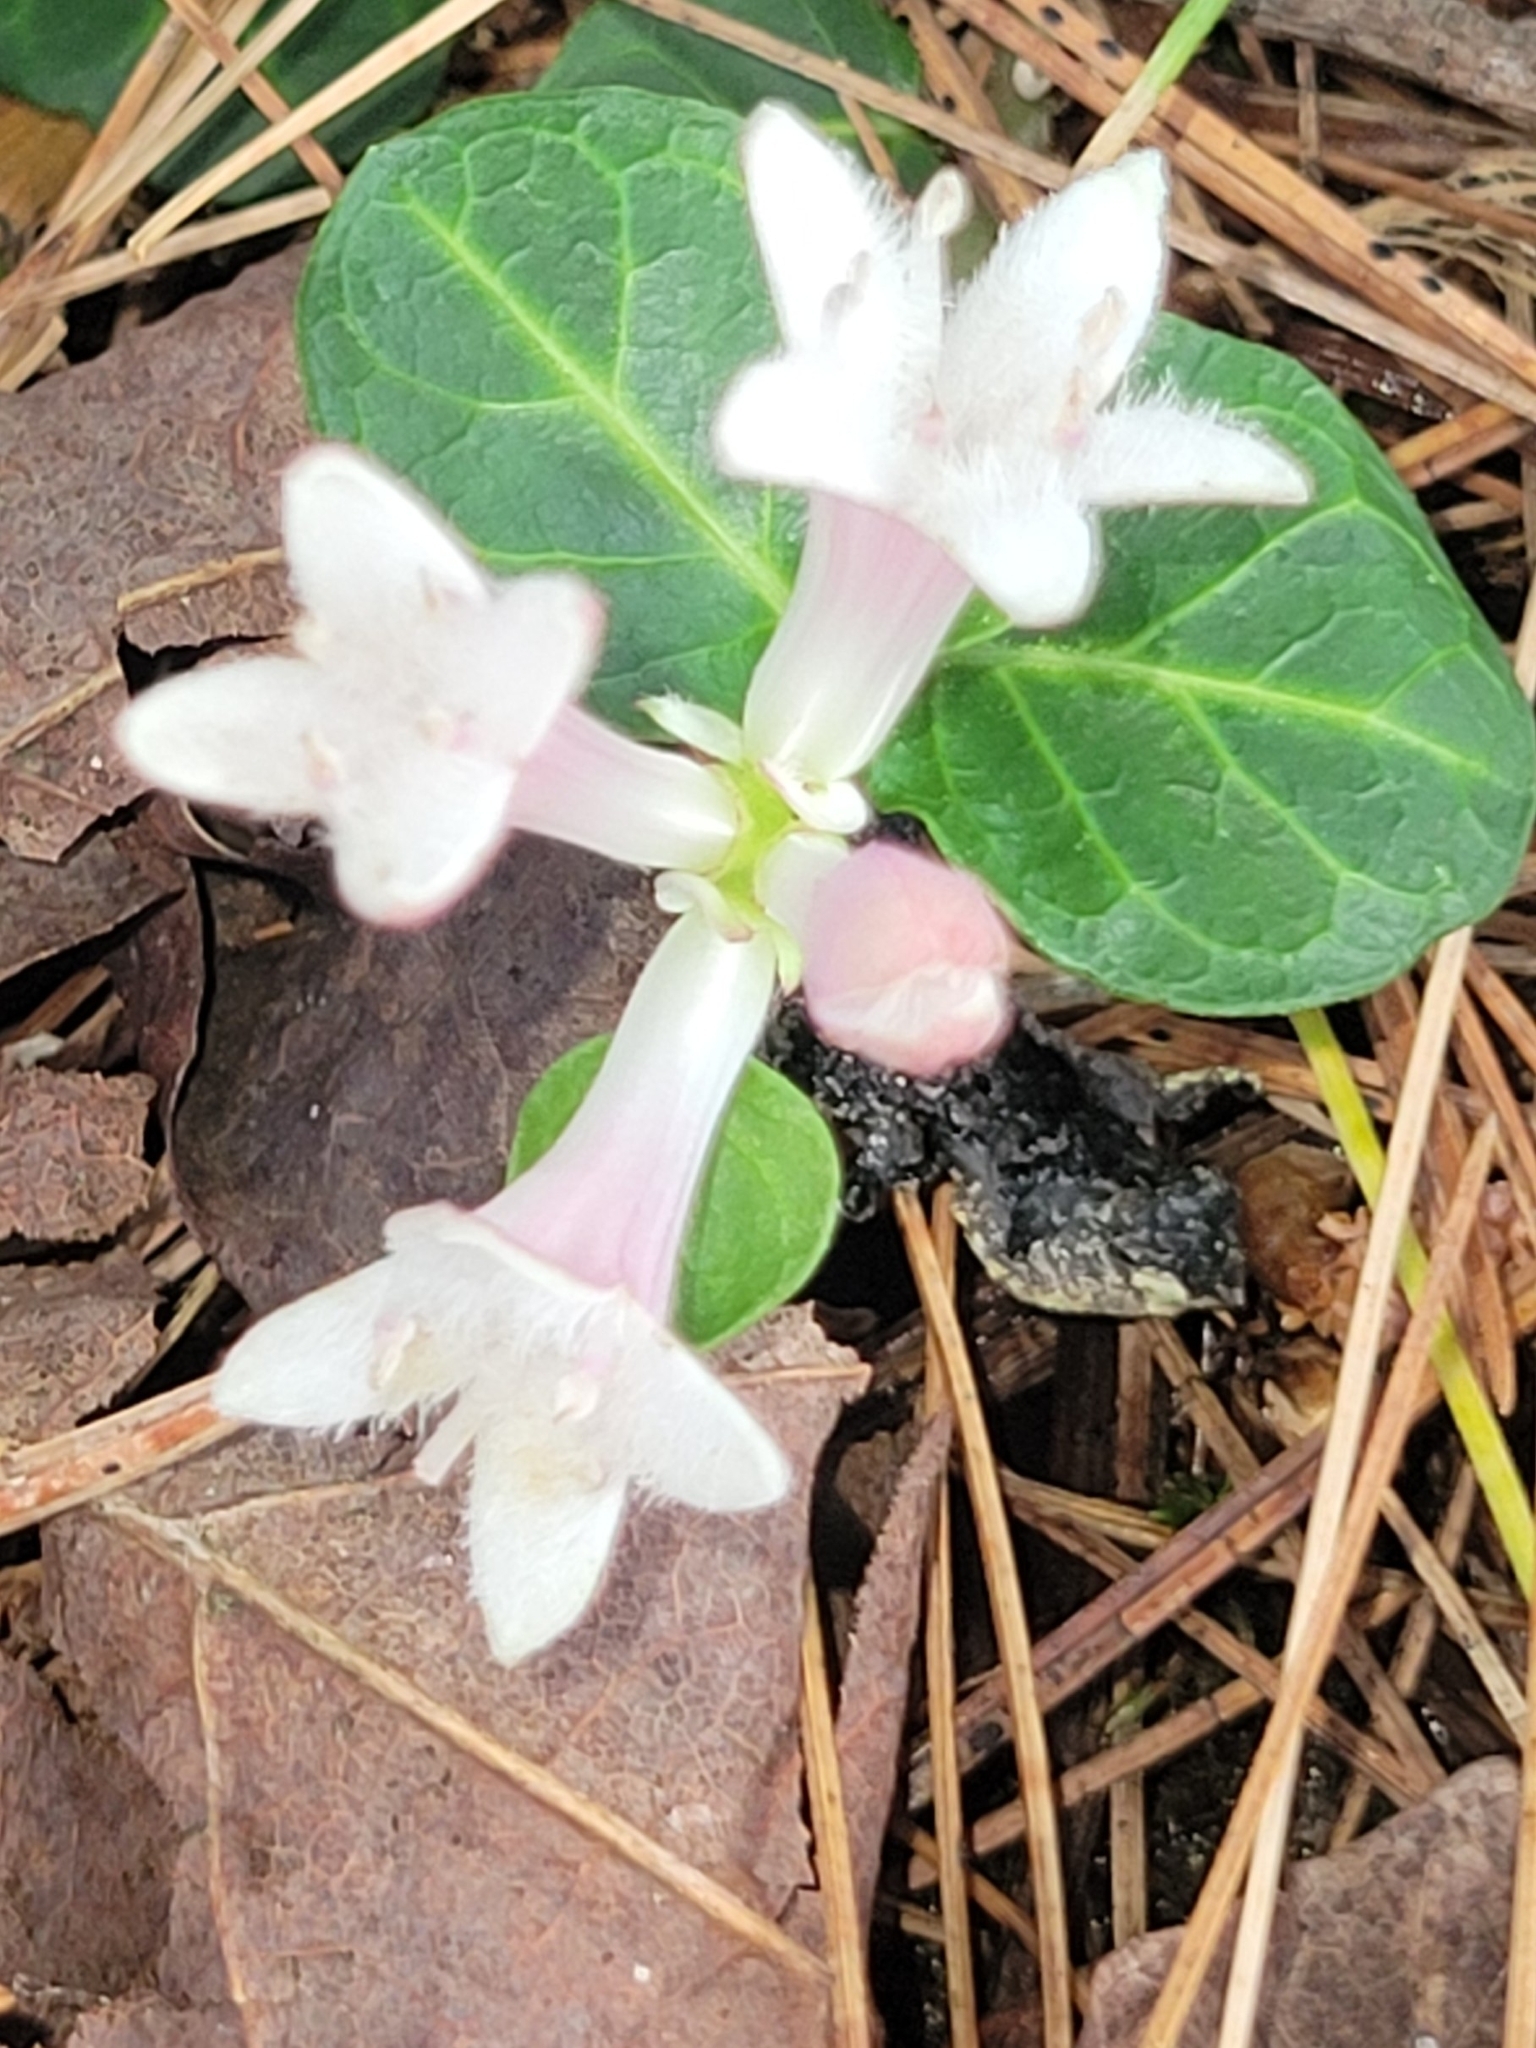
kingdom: Plantae
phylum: Tracheophyta
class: Magnoliopsida
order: Gentianales
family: Rubiaceae
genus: Mitchella
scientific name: Mitchella repens
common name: Partridge-berry
